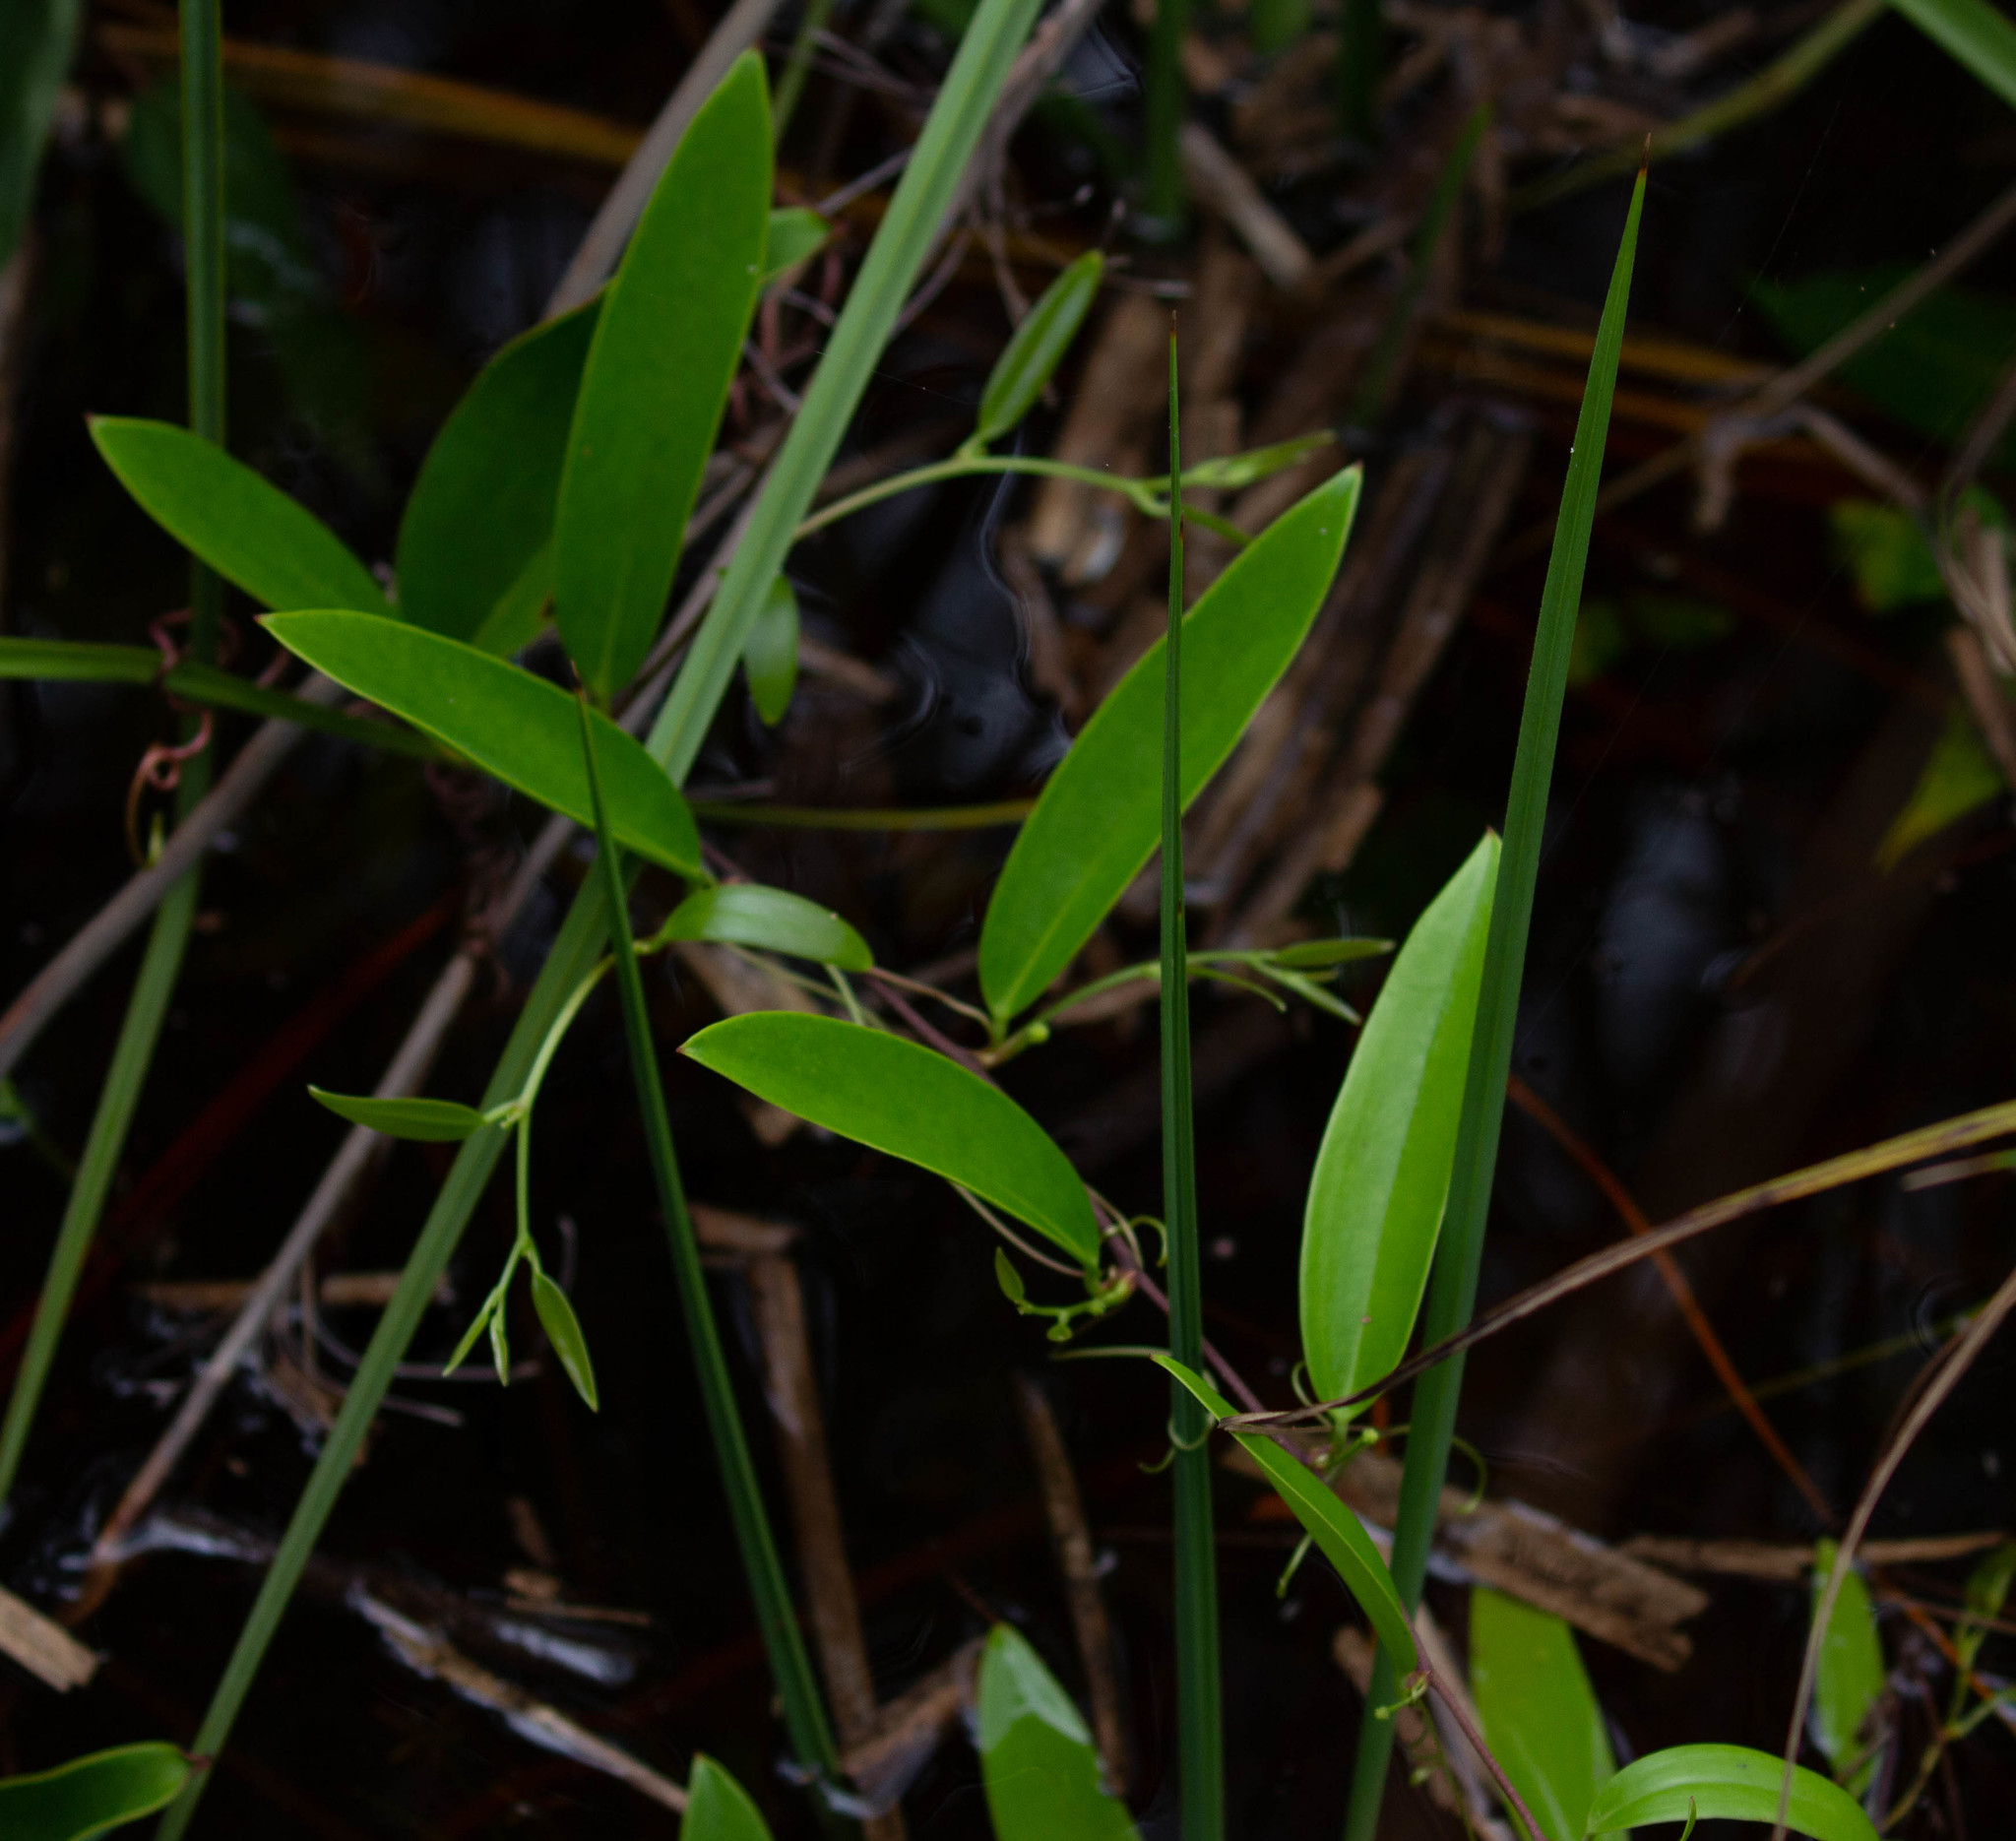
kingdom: Plantae
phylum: Tracheophyta
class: Liliopsida
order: Liliales
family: Smilacaceae
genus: Smilax
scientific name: Smilax laurifolia
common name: Bamboovine
